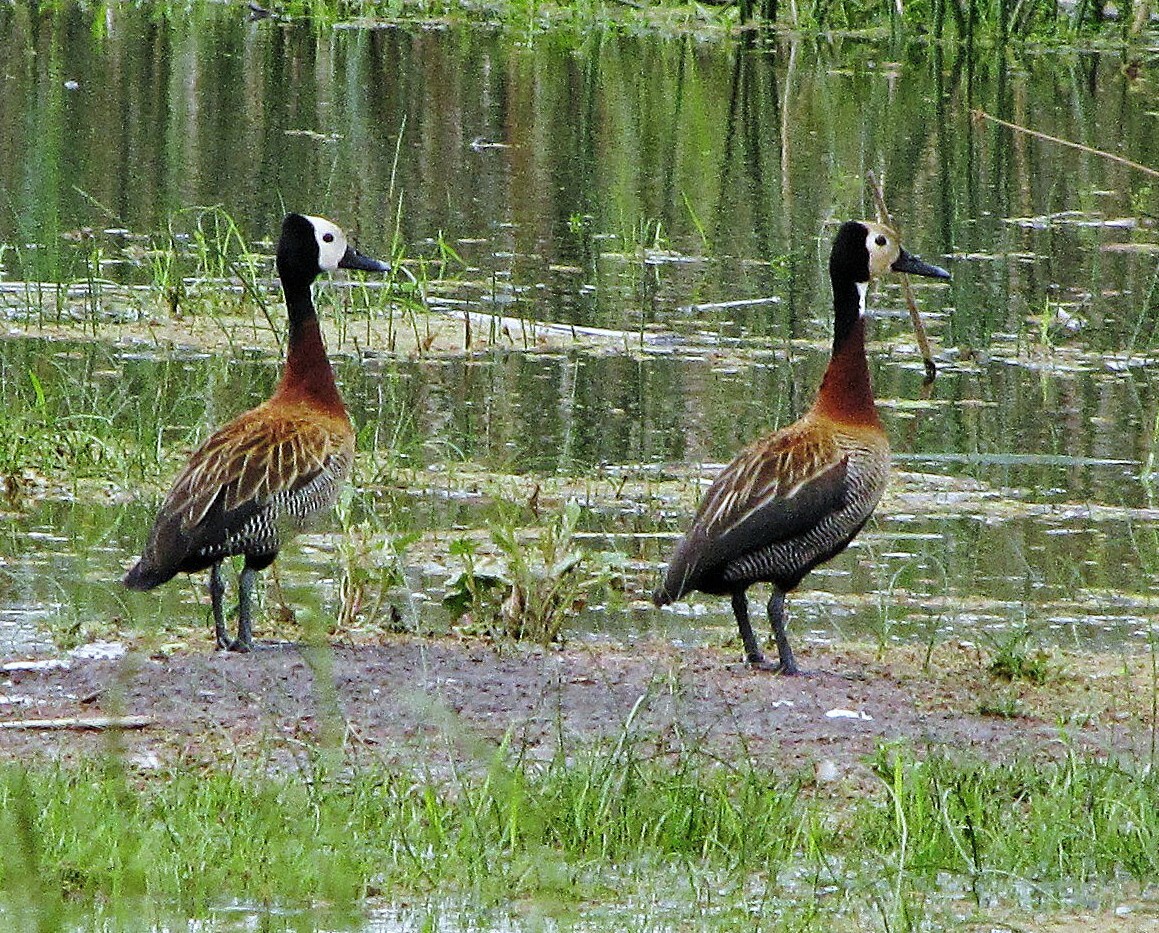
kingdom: Animalia
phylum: Chordata
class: Aves
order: Anseriformes
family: Anatidae
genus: Dendrocygna
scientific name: Dendrocygna viduata
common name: White-faced whistling duck
